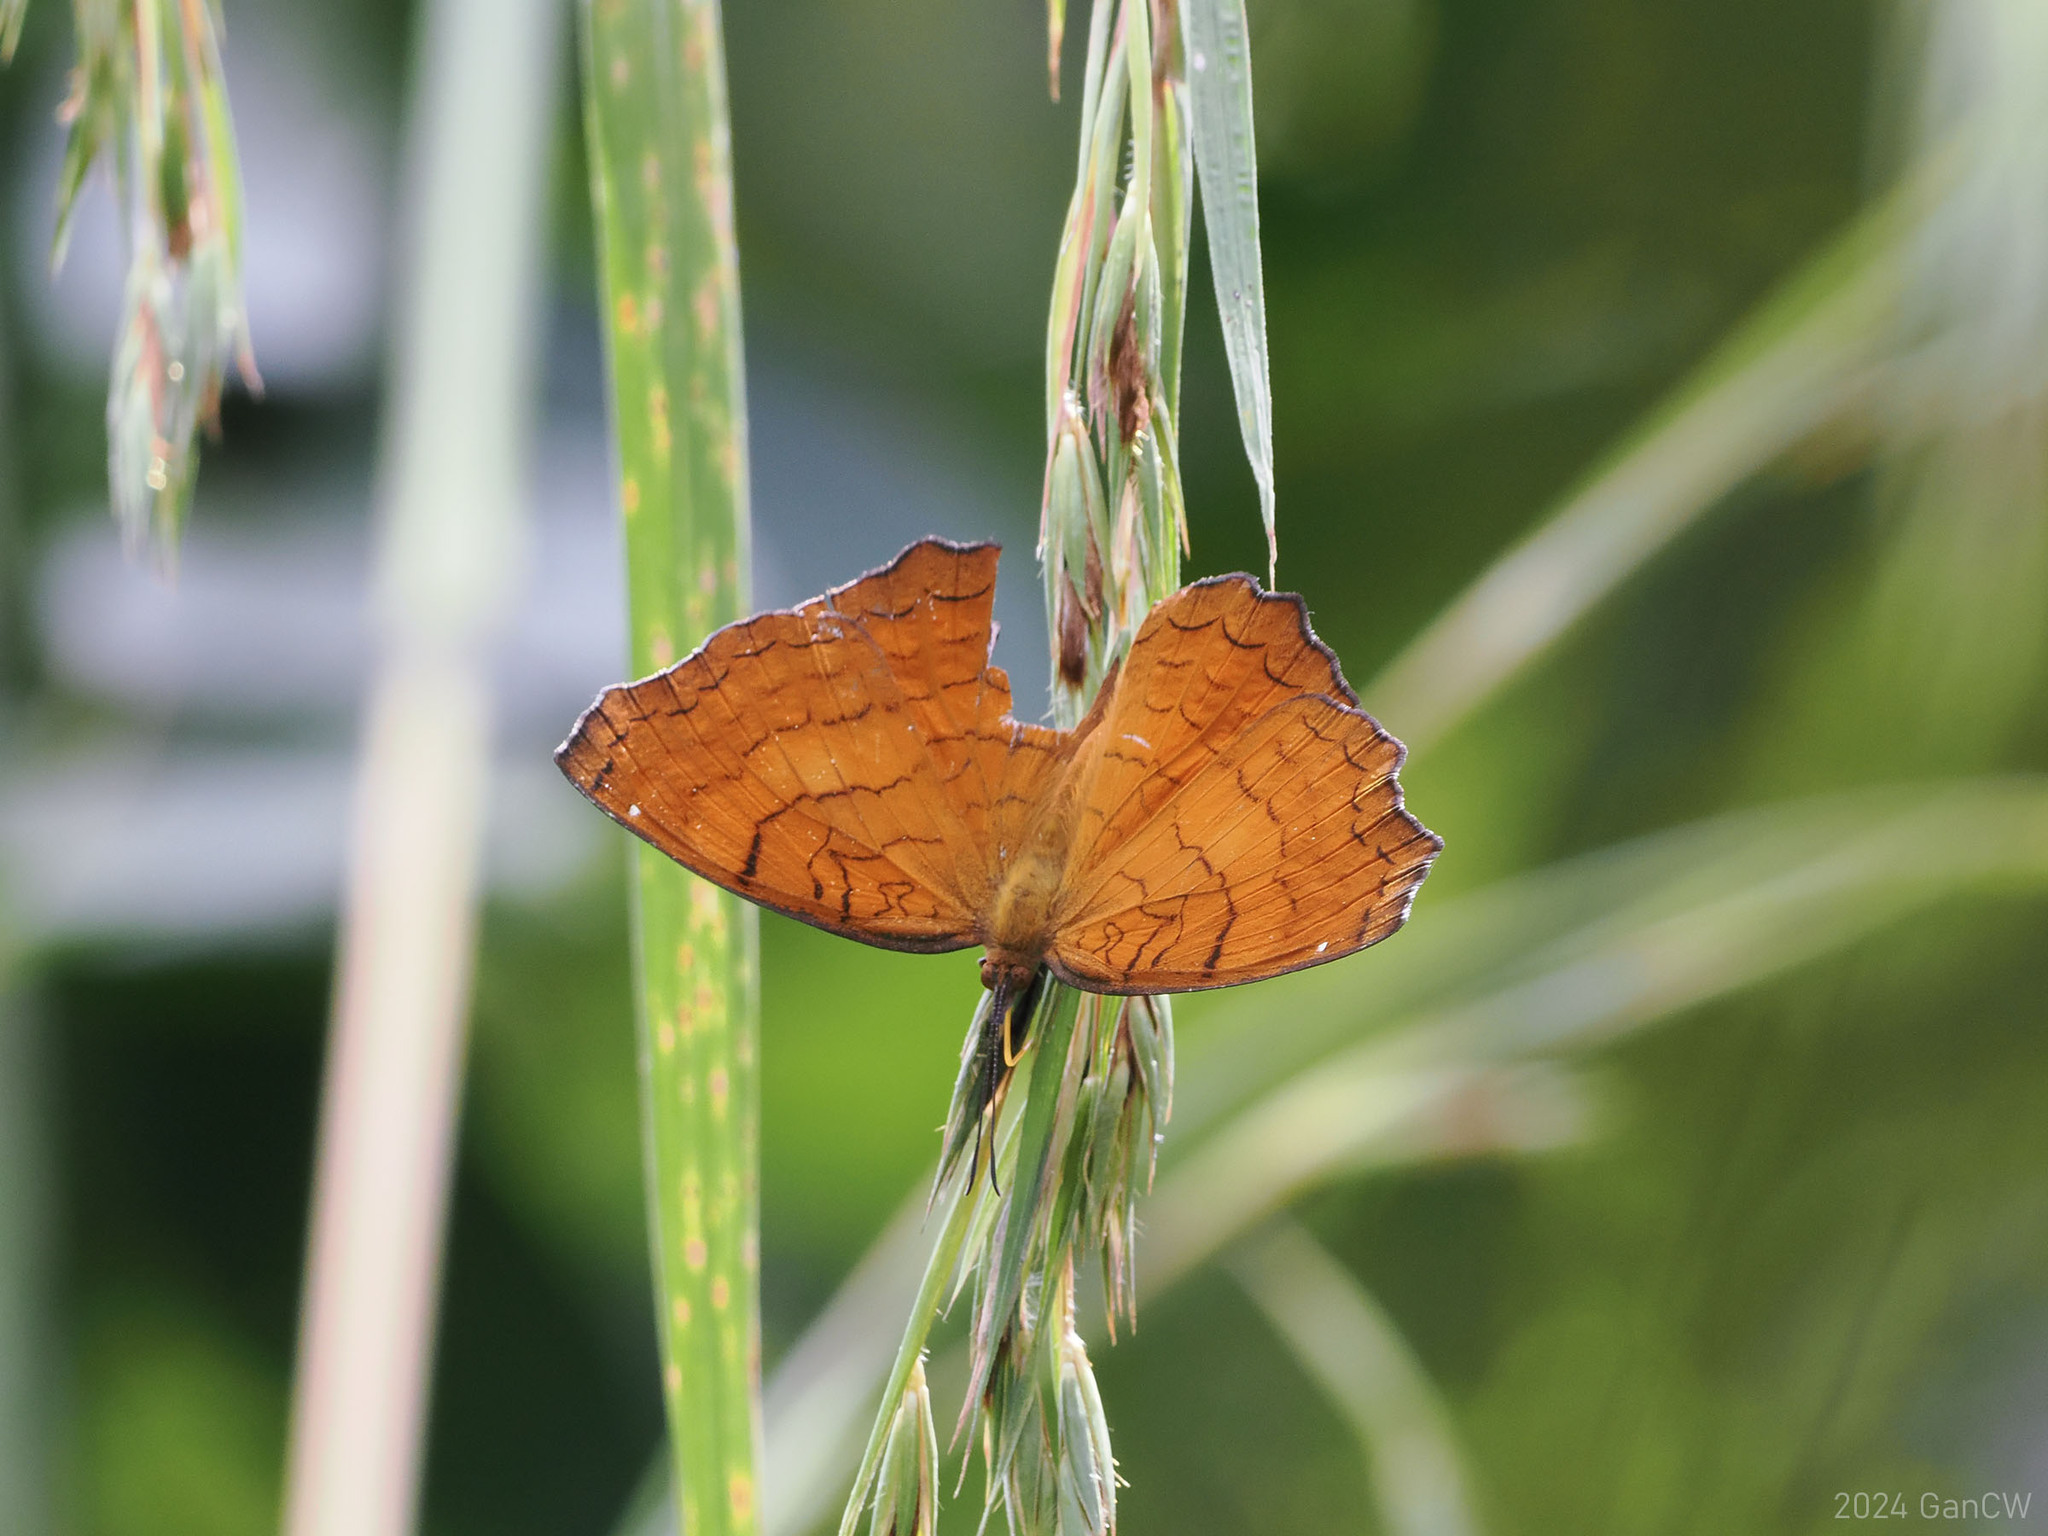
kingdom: Animalia
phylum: Arthropoda
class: Insecta
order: Lepidoptera
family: Nymphalidae
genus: Ariadne
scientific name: Ariadne ariadne
